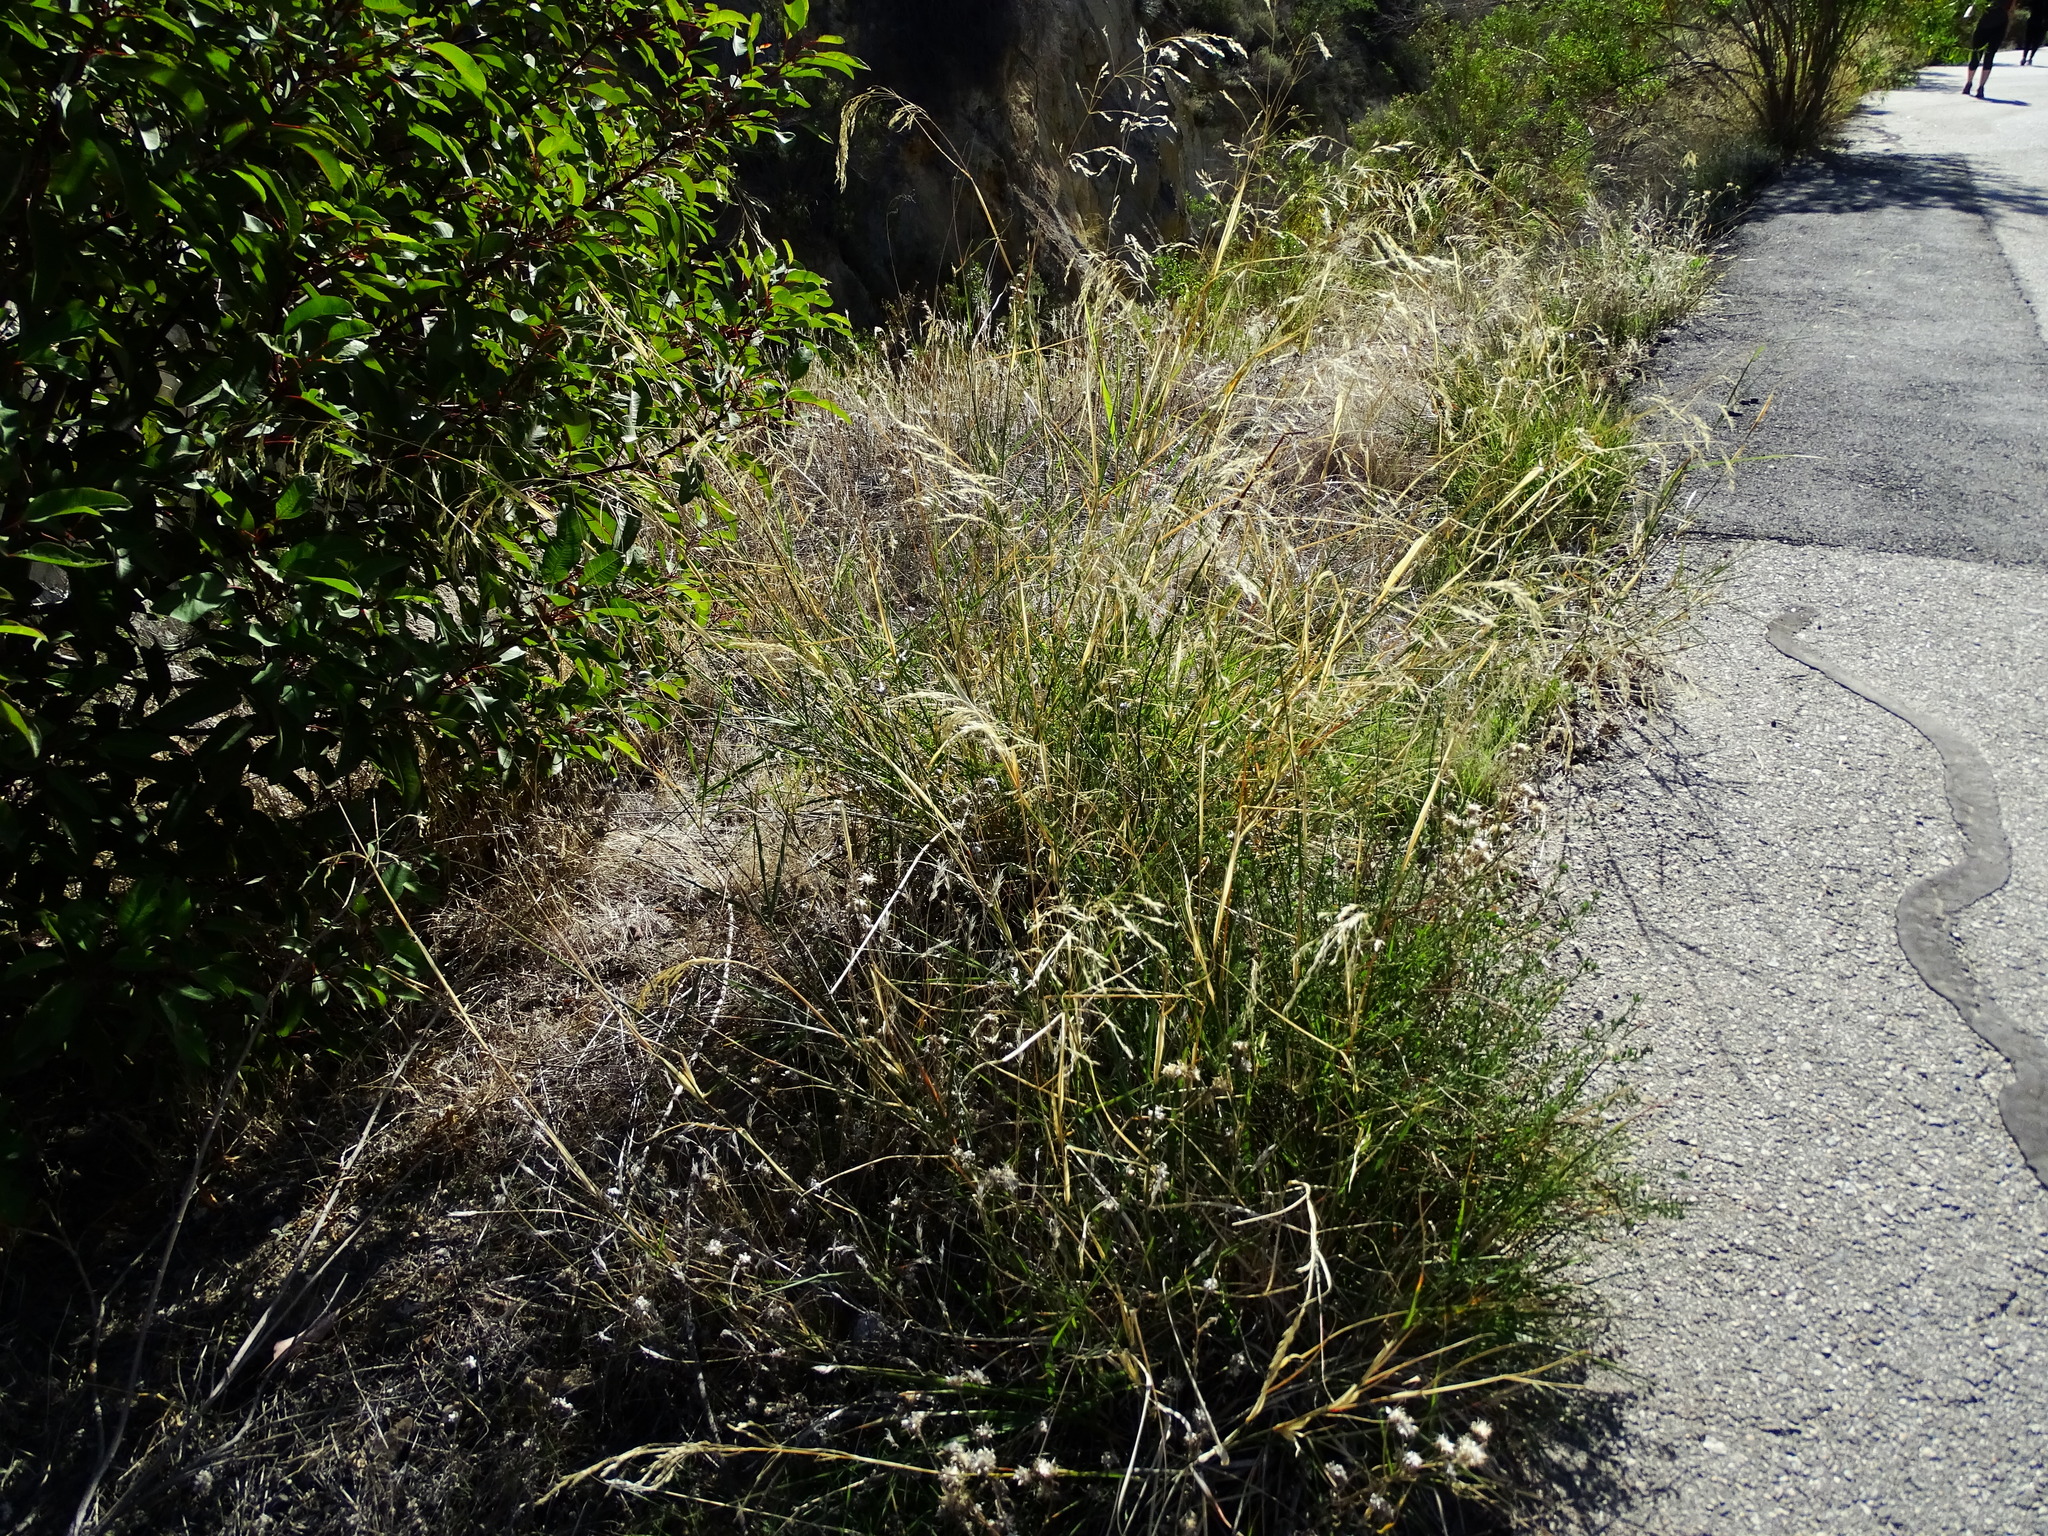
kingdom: Plantae
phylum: Tracheophyta
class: Liliopsida
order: Poales
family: Poaceae
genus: Oloptum
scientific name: Oloptum miliaceum
